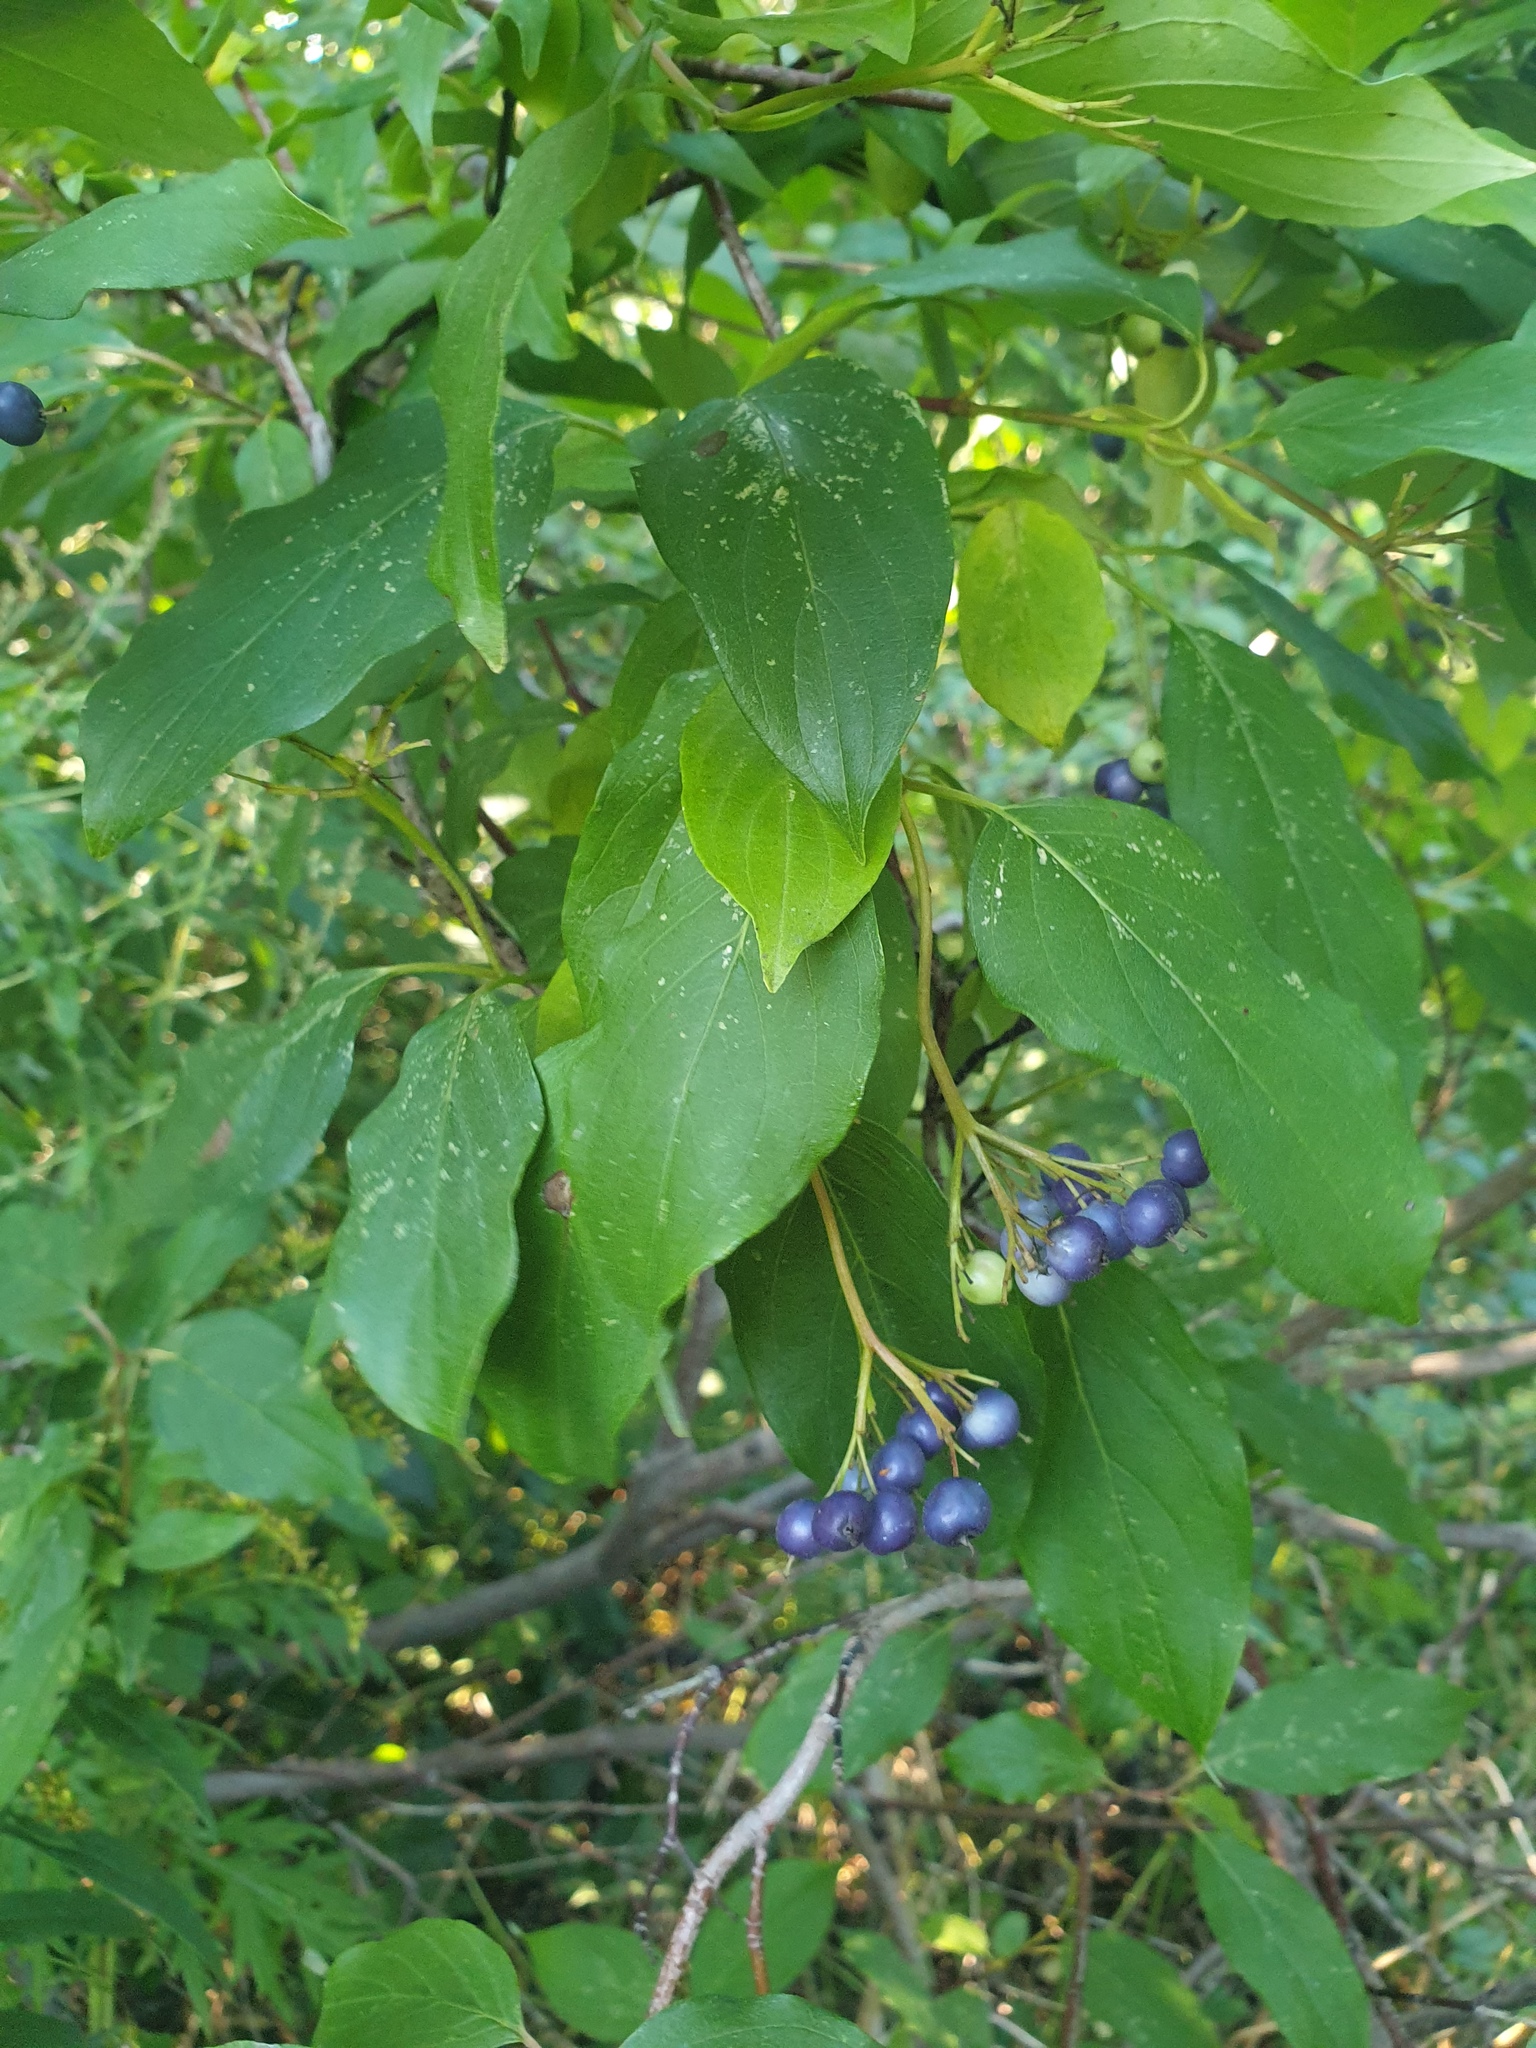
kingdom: Plantae
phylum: Tracheophyta
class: Magnoliopsida
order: Cornales
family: Cornaceae
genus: Cornus
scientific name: Cornus obliqua
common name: Pale dogwood
